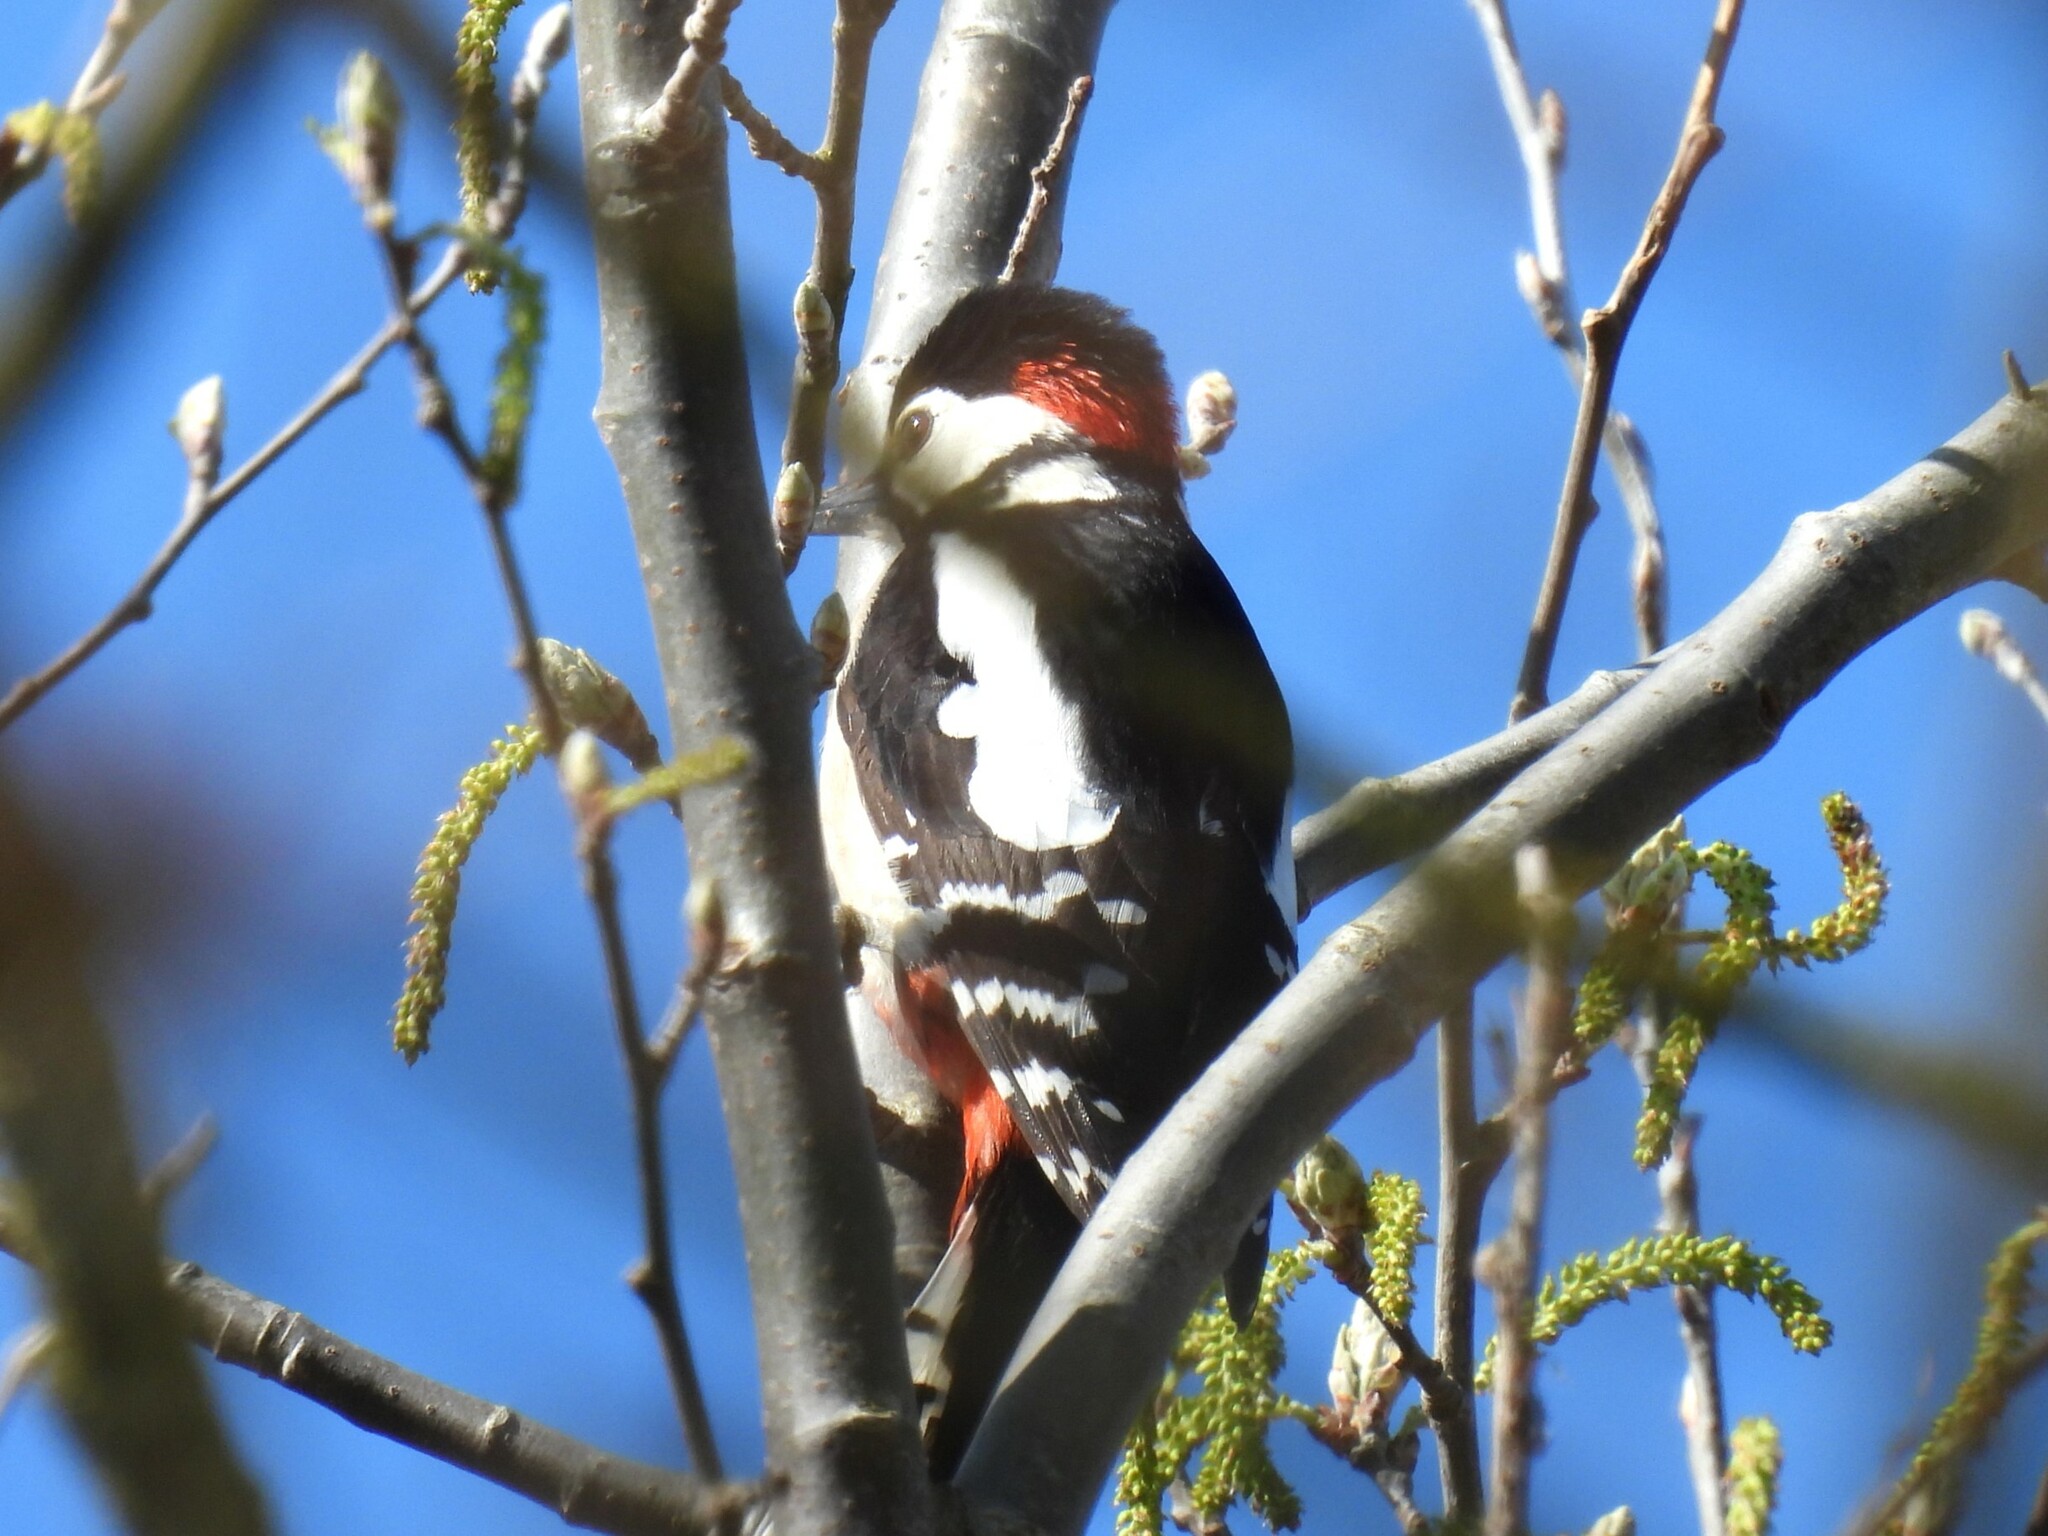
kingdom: Animalia
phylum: Chordata
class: Aves
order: Piciformes
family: Picidae
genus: Dendrocopos
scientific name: Dendrocopos major
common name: Great spotted woodpecker
